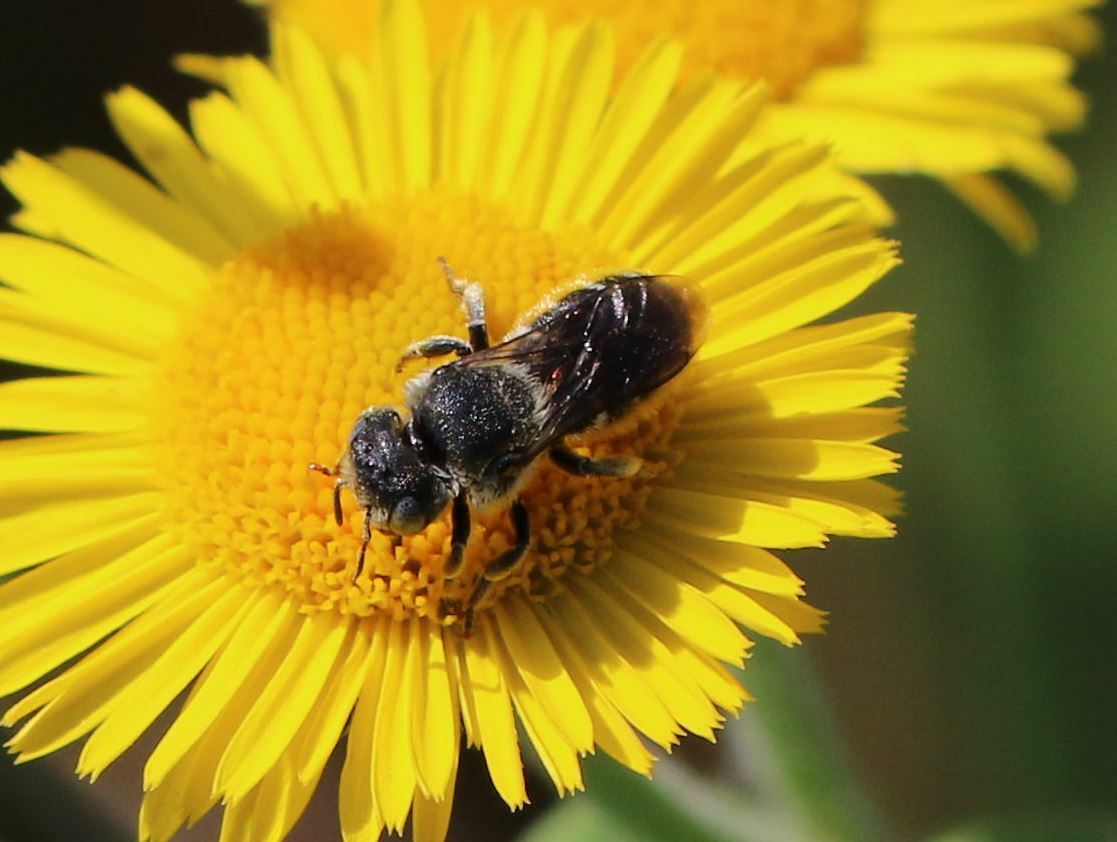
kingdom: Animalia
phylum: Arthropoda
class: Insecta
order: Hymenoptera
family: Megachilidae
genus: Osmia
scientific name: Osmia spinulosa
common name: Spined mason bee
